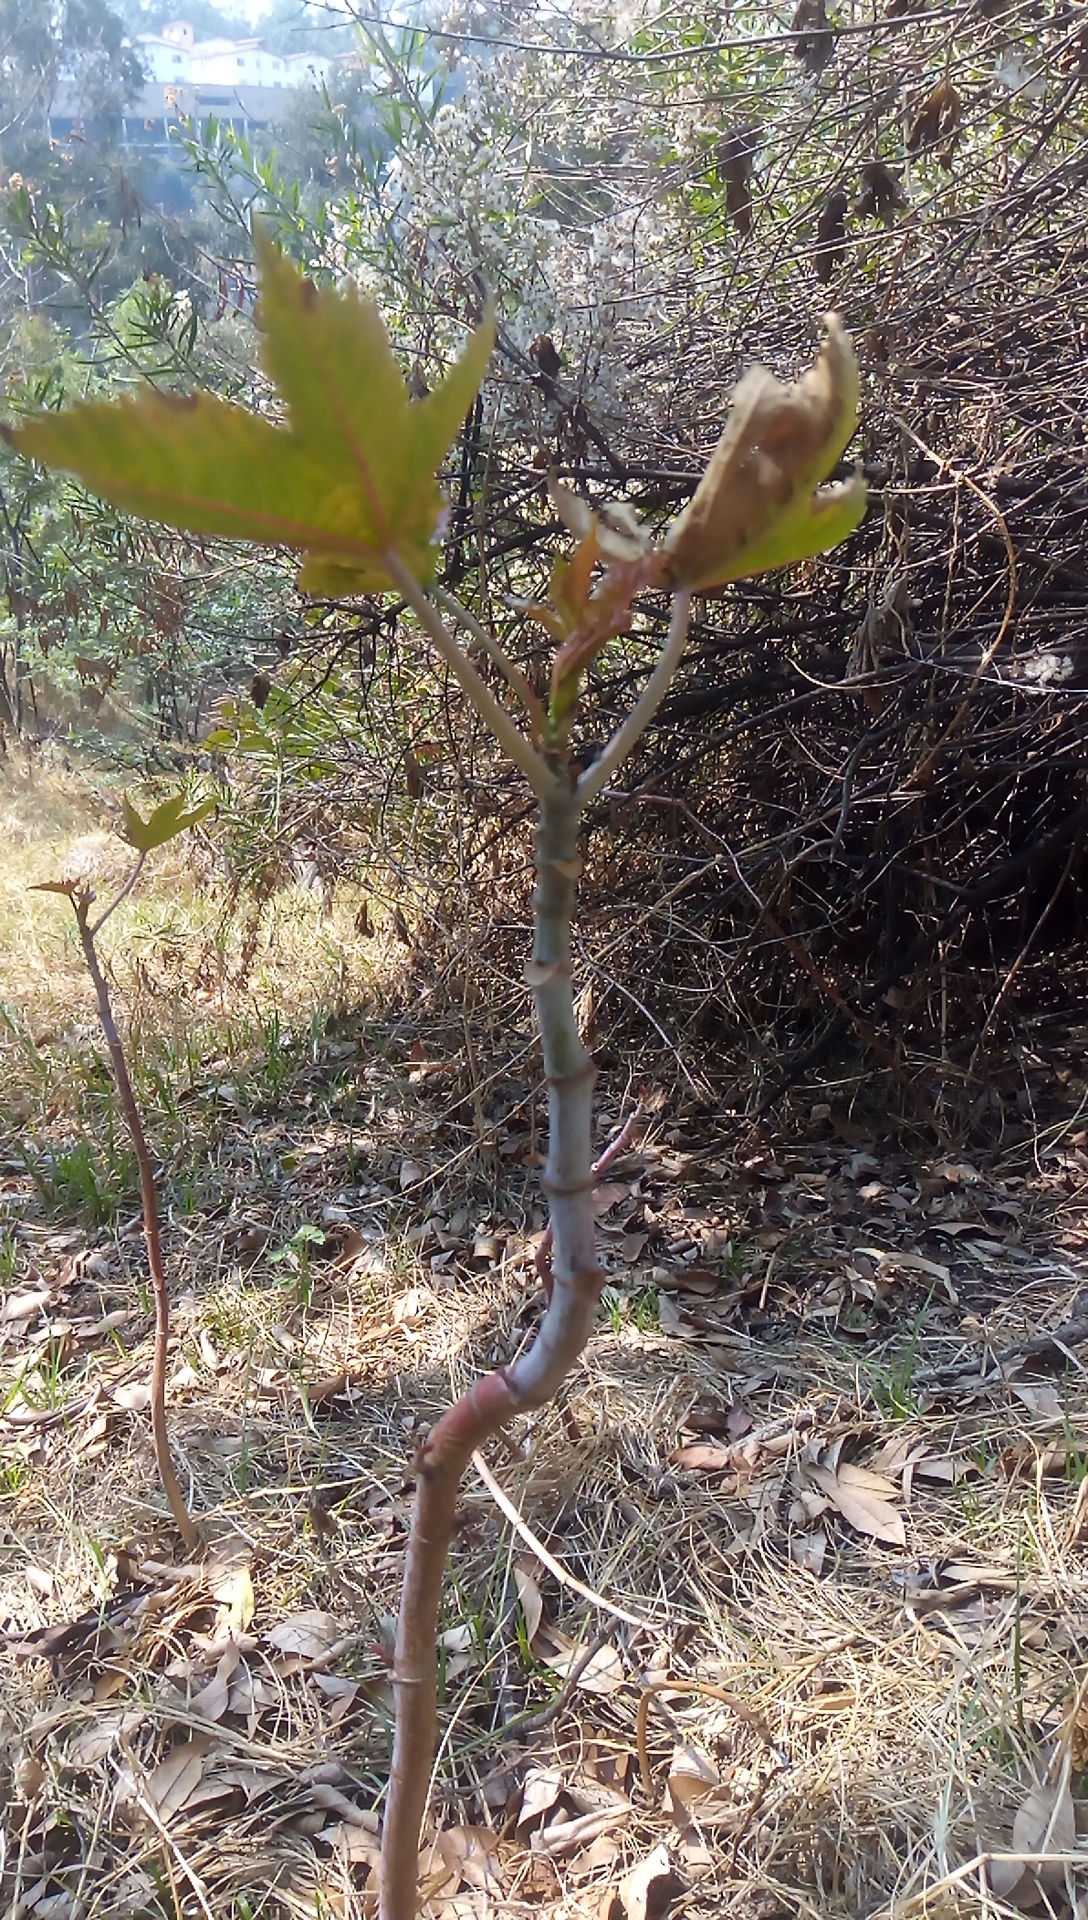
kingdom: Plantae
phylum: Tracheophyta
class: Magnoliopsida
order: Malpighiales
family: Euphorbiaceae
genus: Ricinus
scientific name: Ricinus communis
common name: Castor-oil-plant
